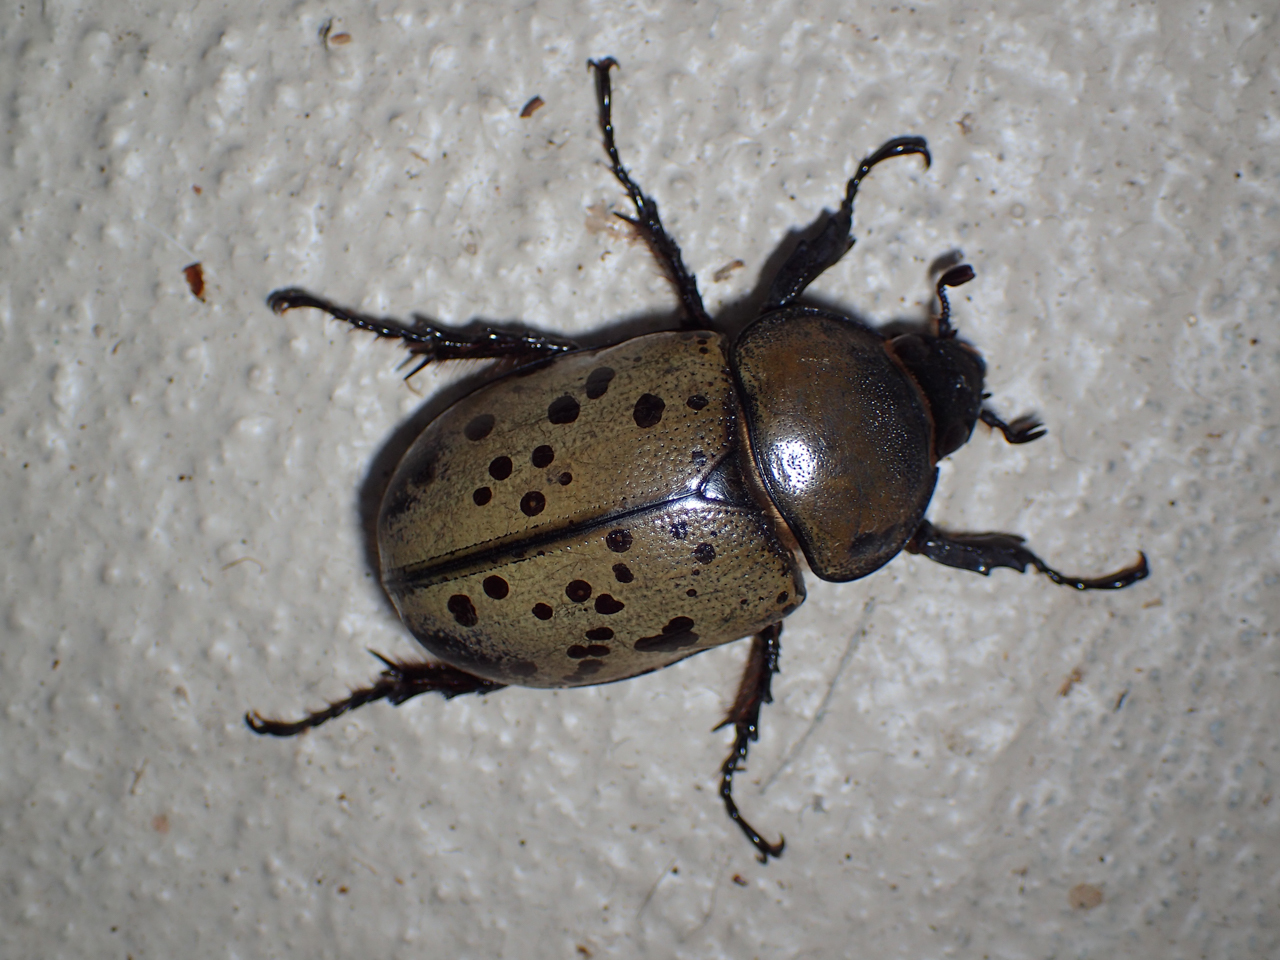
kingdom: Animalia
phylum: Arthropoda
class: Insecta
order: Coleoptera
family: Scarabaeidae
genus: Dynastes
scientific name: Dynastes tityus
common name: Eastern hercules beetle
